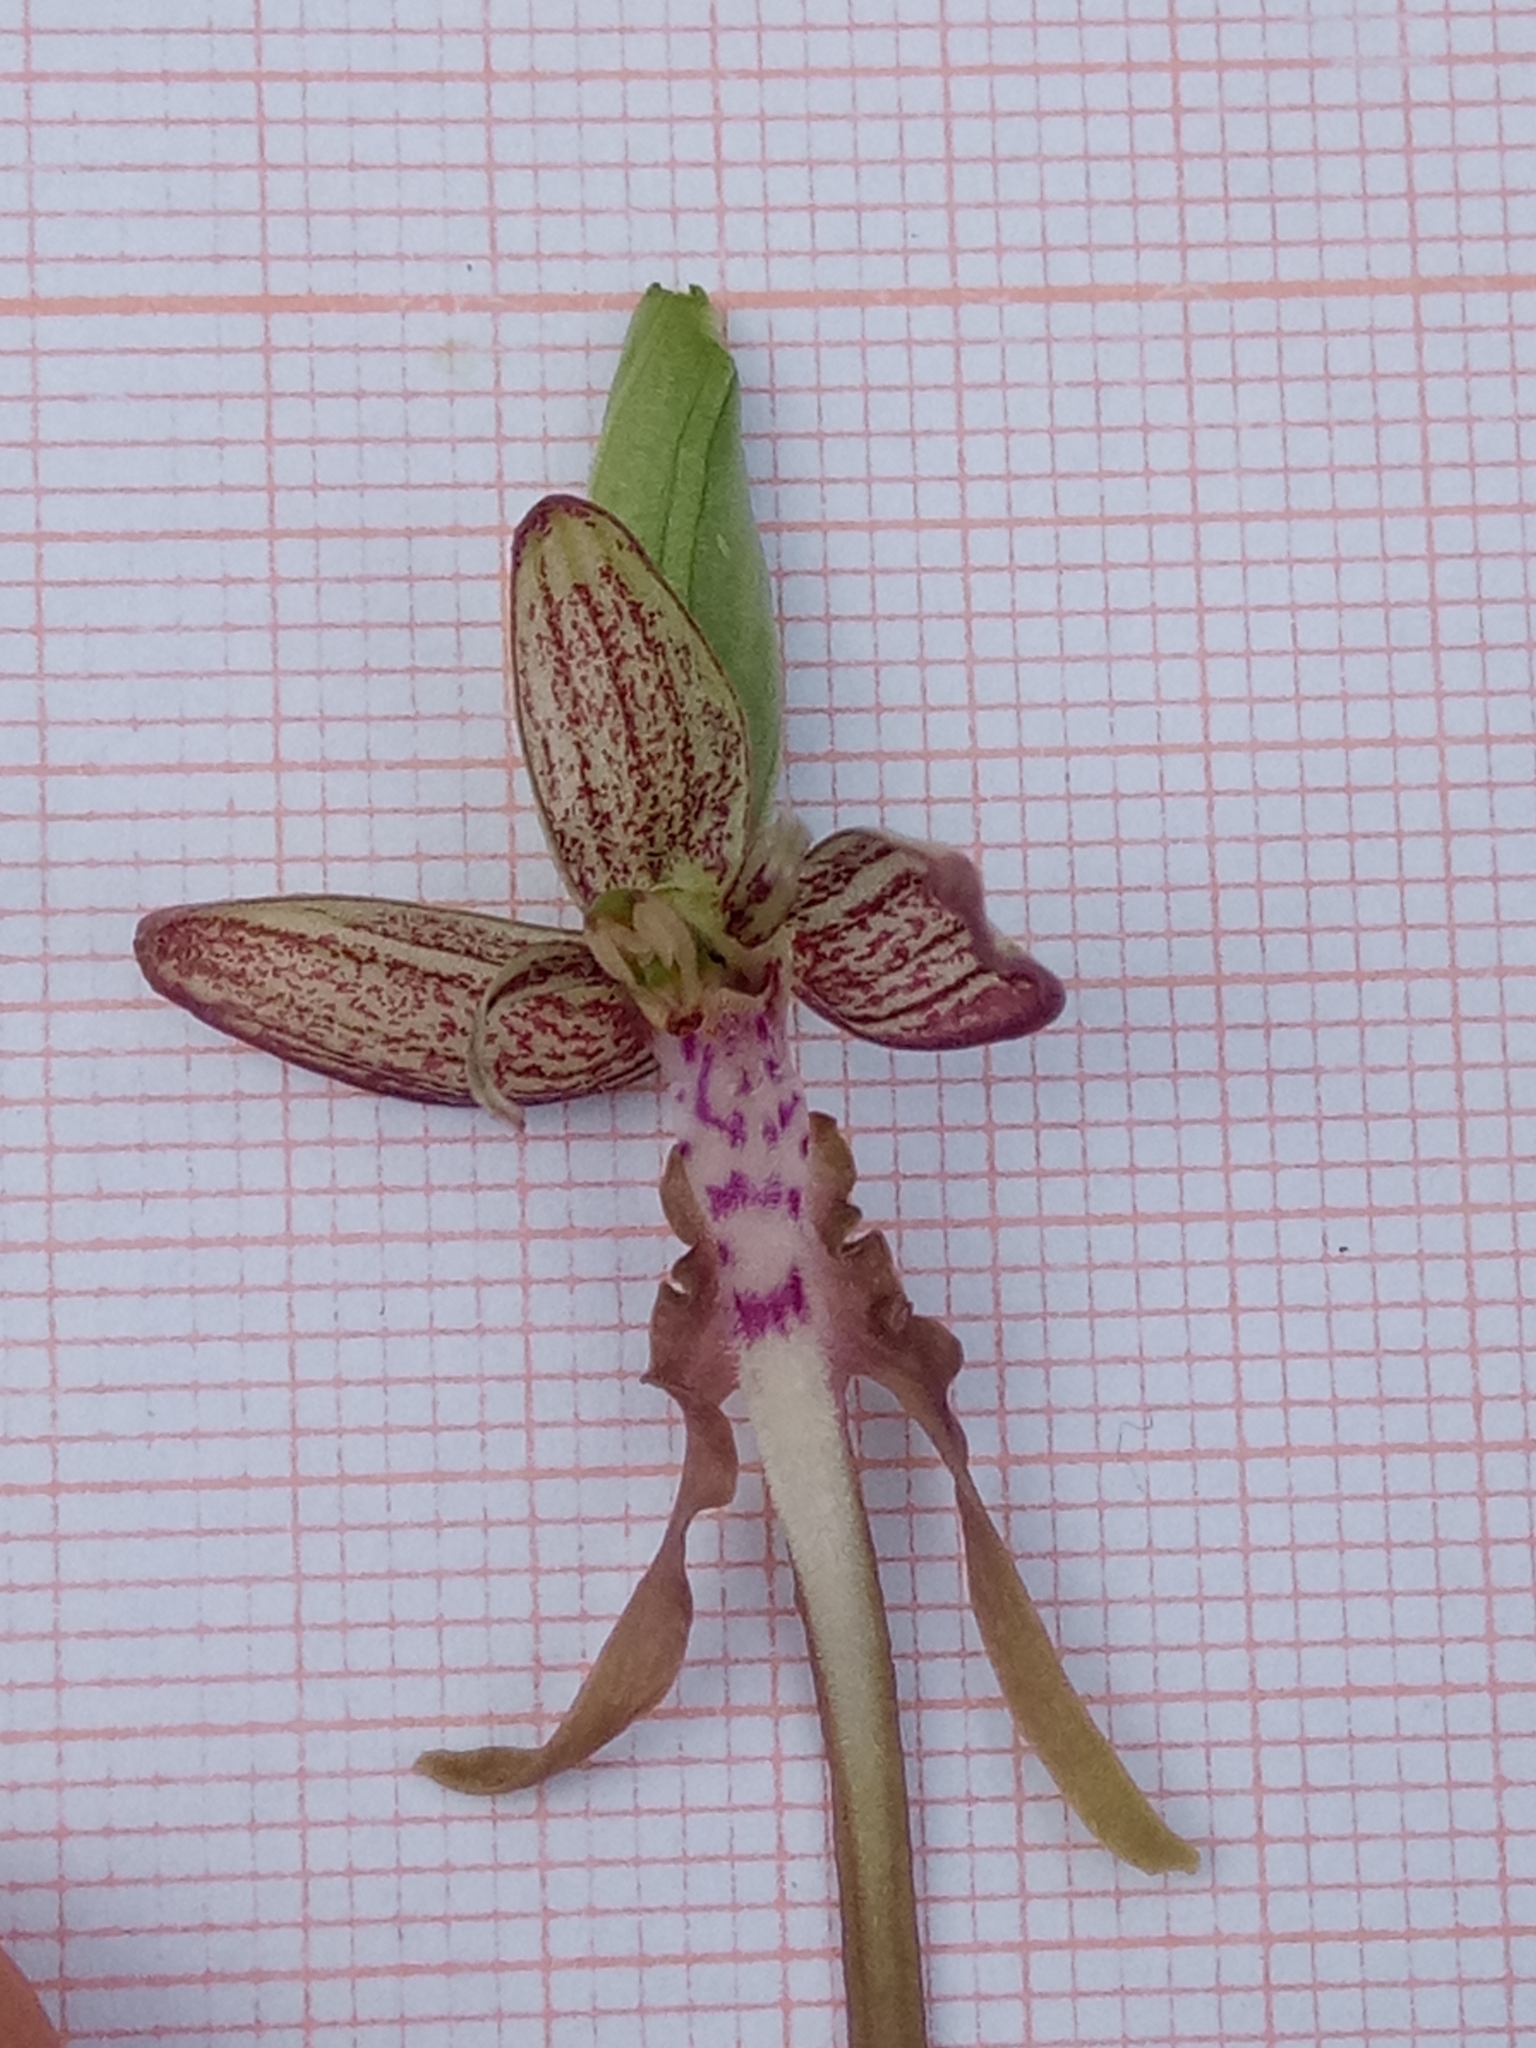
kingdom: Plantae
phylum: Tracheophyta
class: Liliopsida
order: Asparagales
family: Orchidaceae
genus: Himantoglossum
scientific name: Himantoglossum hircinum
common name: Lizard orchid
